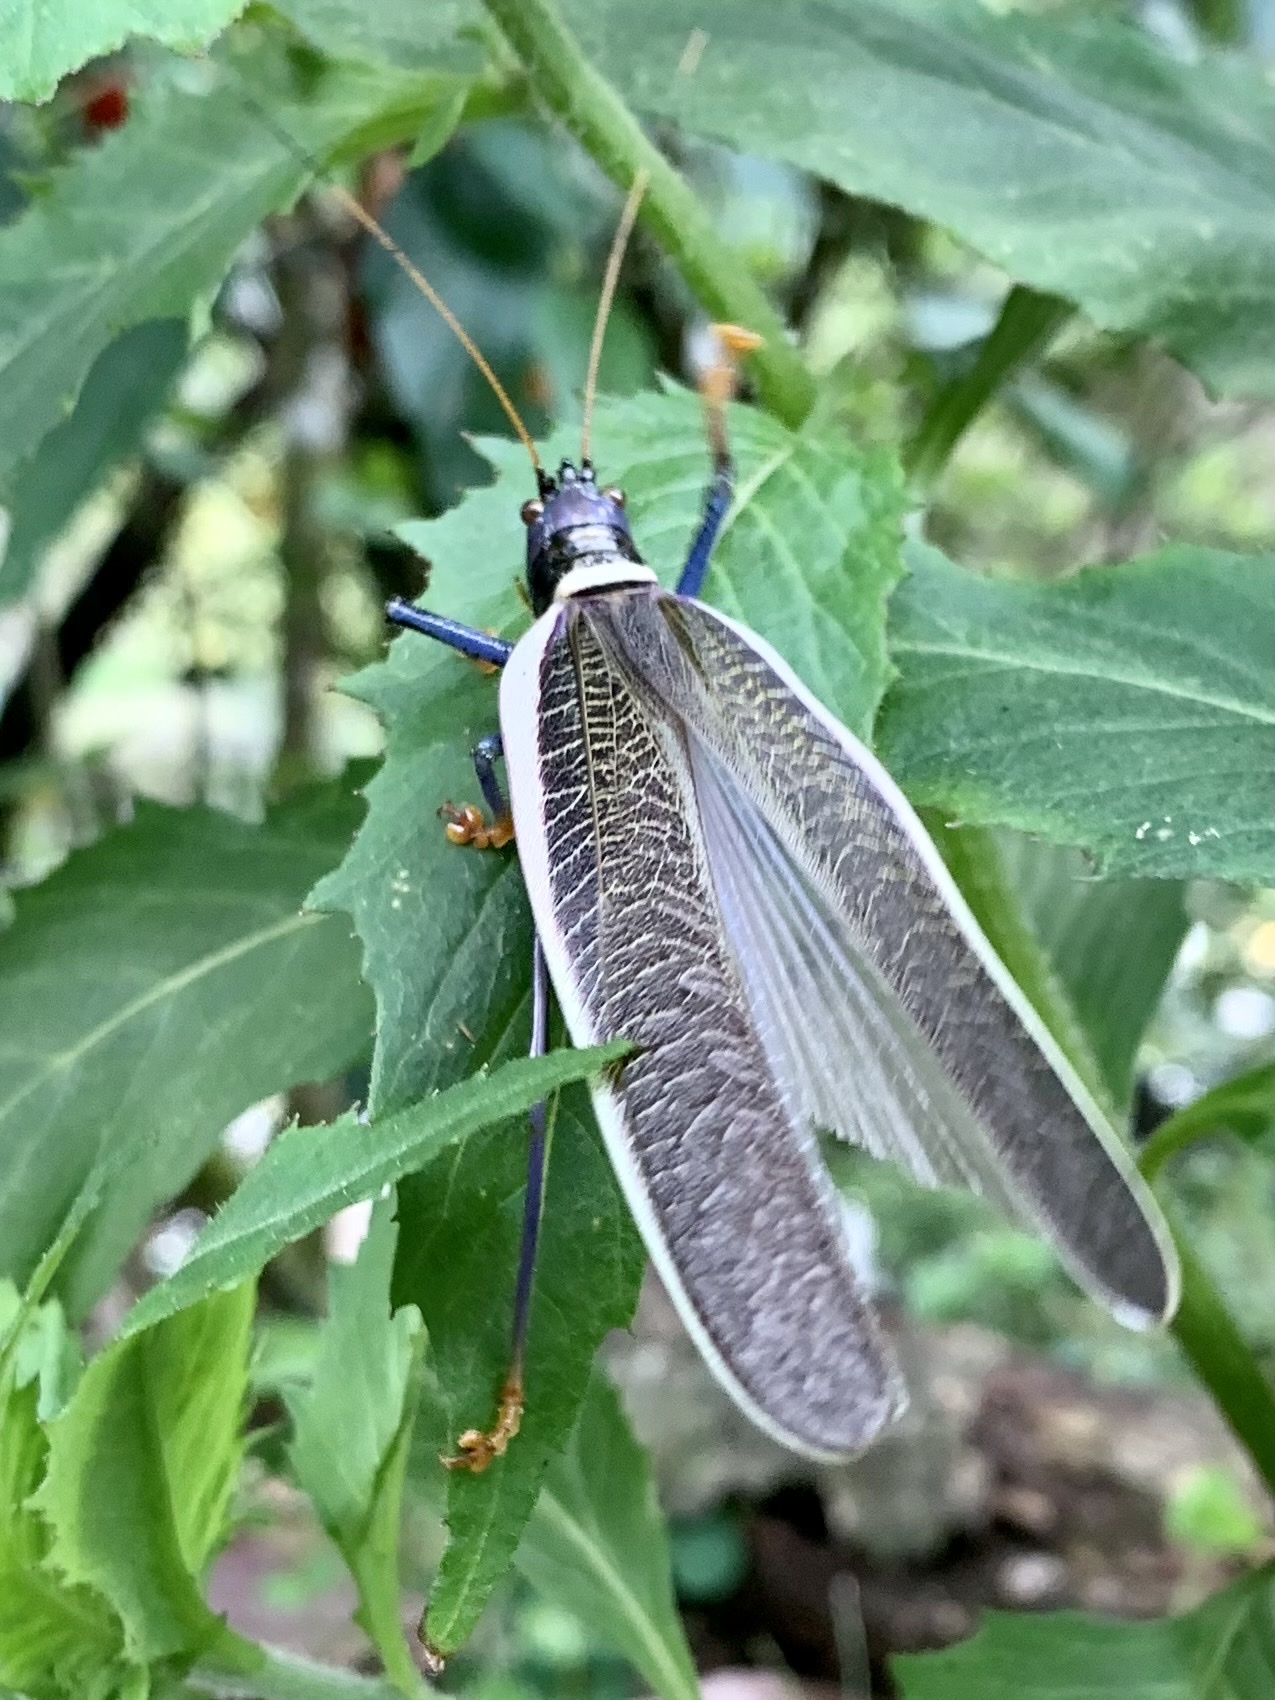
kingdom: Animalia
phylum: Arthropoda
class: Insecta
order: Orthoptera
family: Tettigoniidae
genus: Moncheca
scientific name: Moncheca elegans
